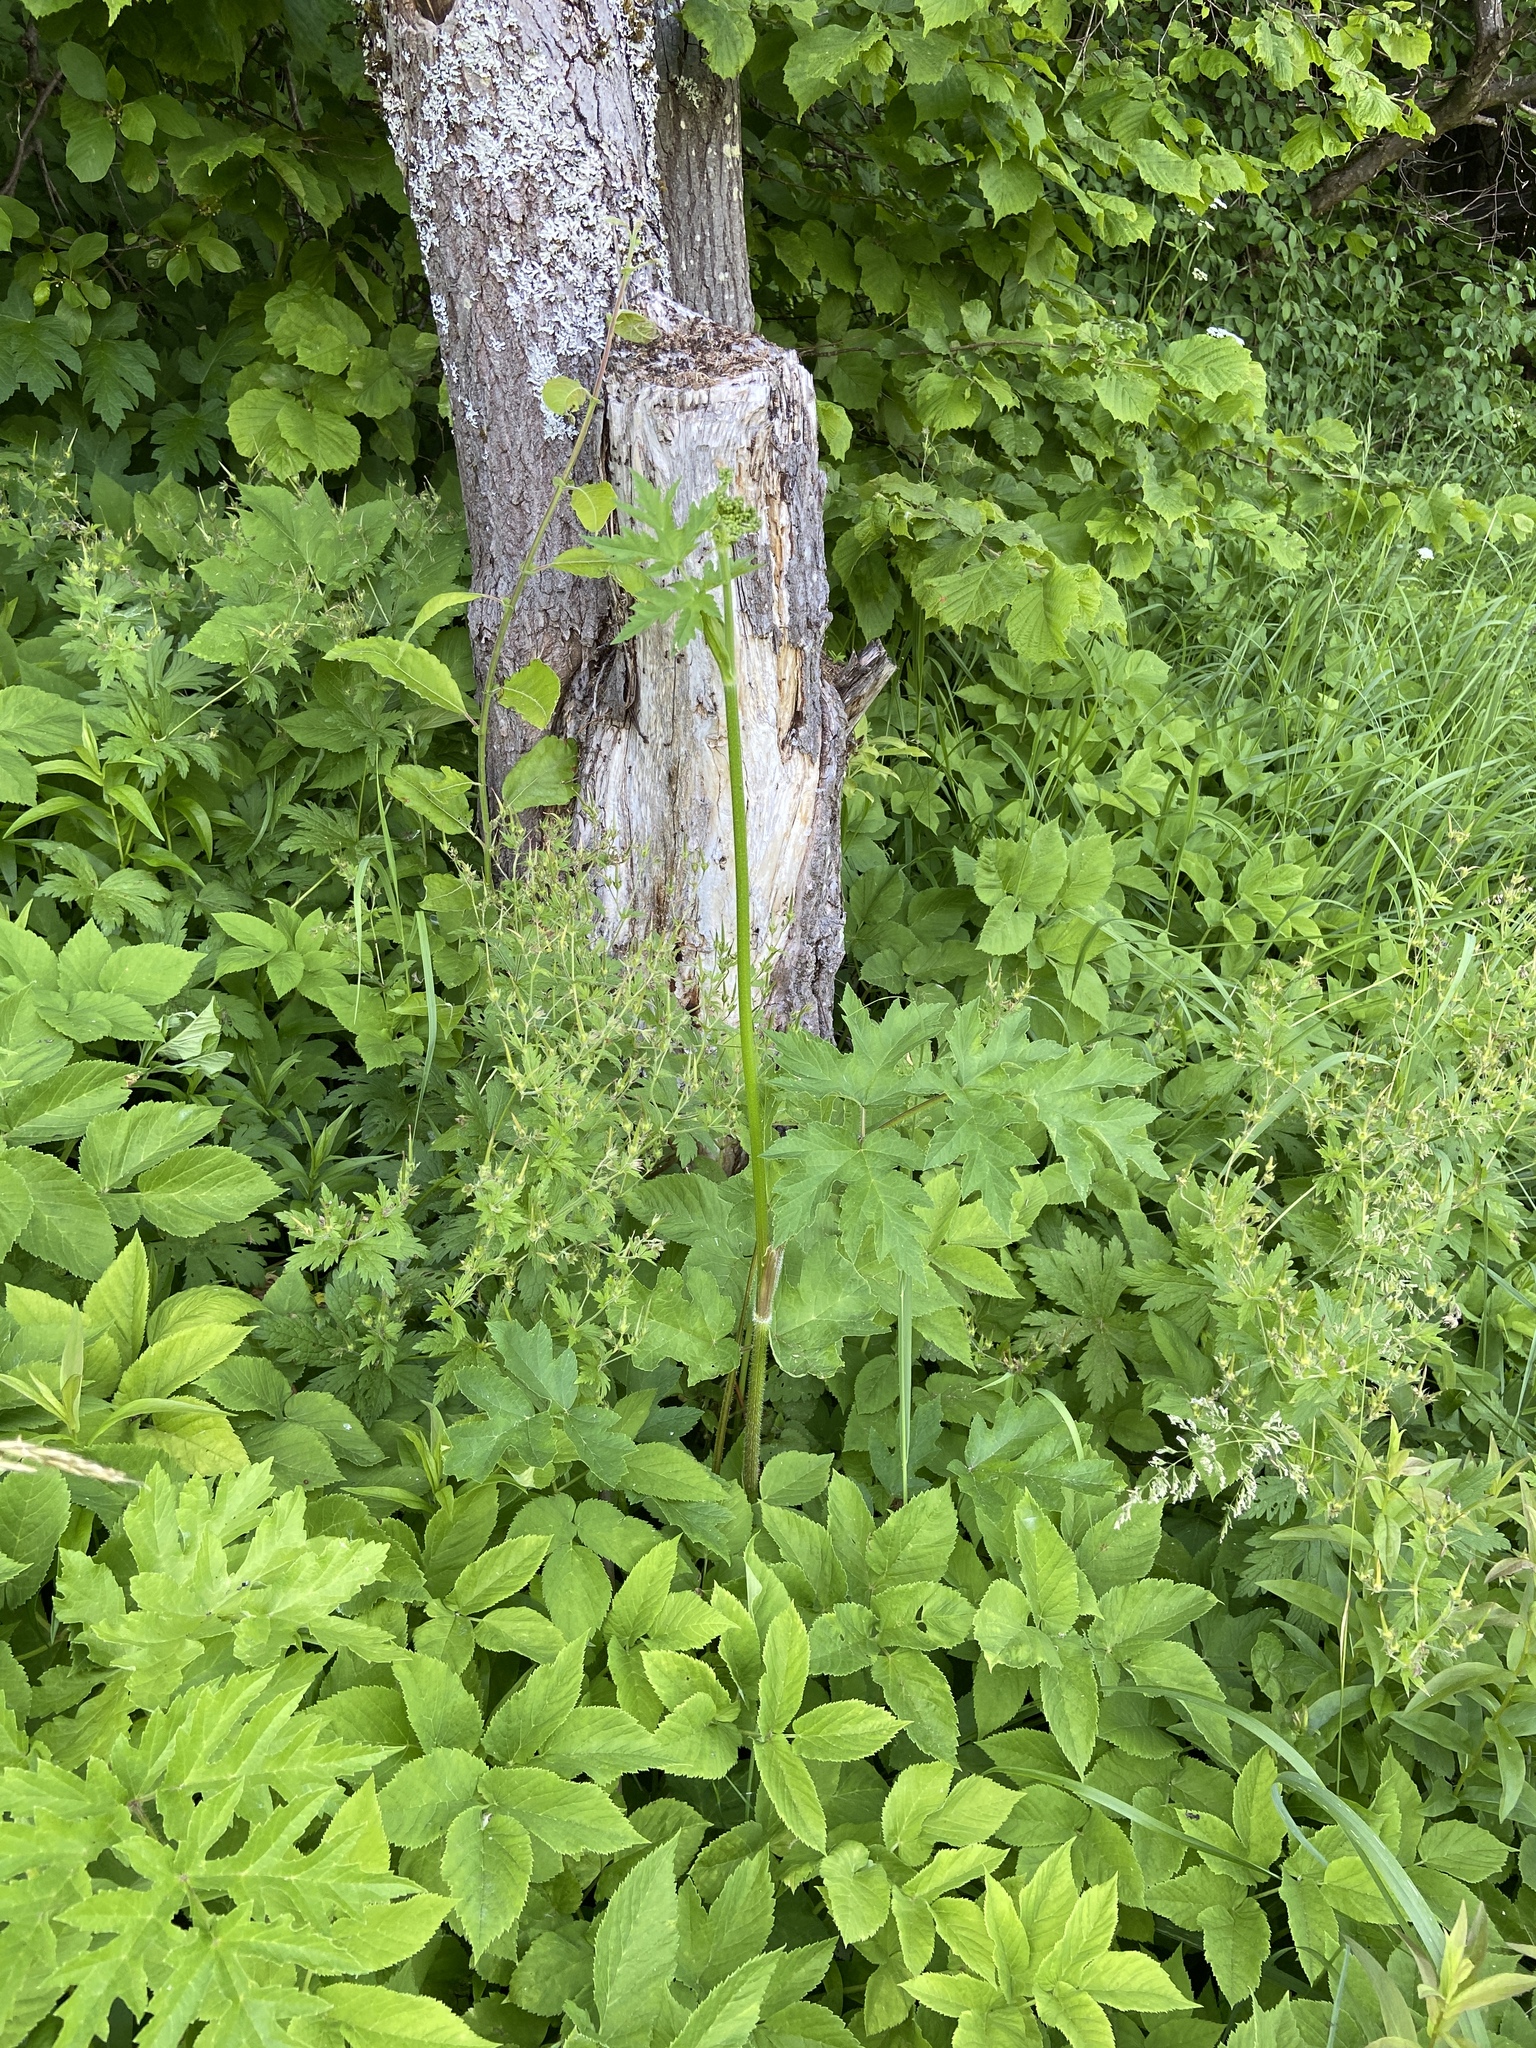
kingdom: Plantae
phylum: Tracheophyta
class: Magnoliopsida
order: Apiales
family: Apiaceae
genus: Aegopodium
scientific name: Aegopodium podagraria
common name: Ground-elder
